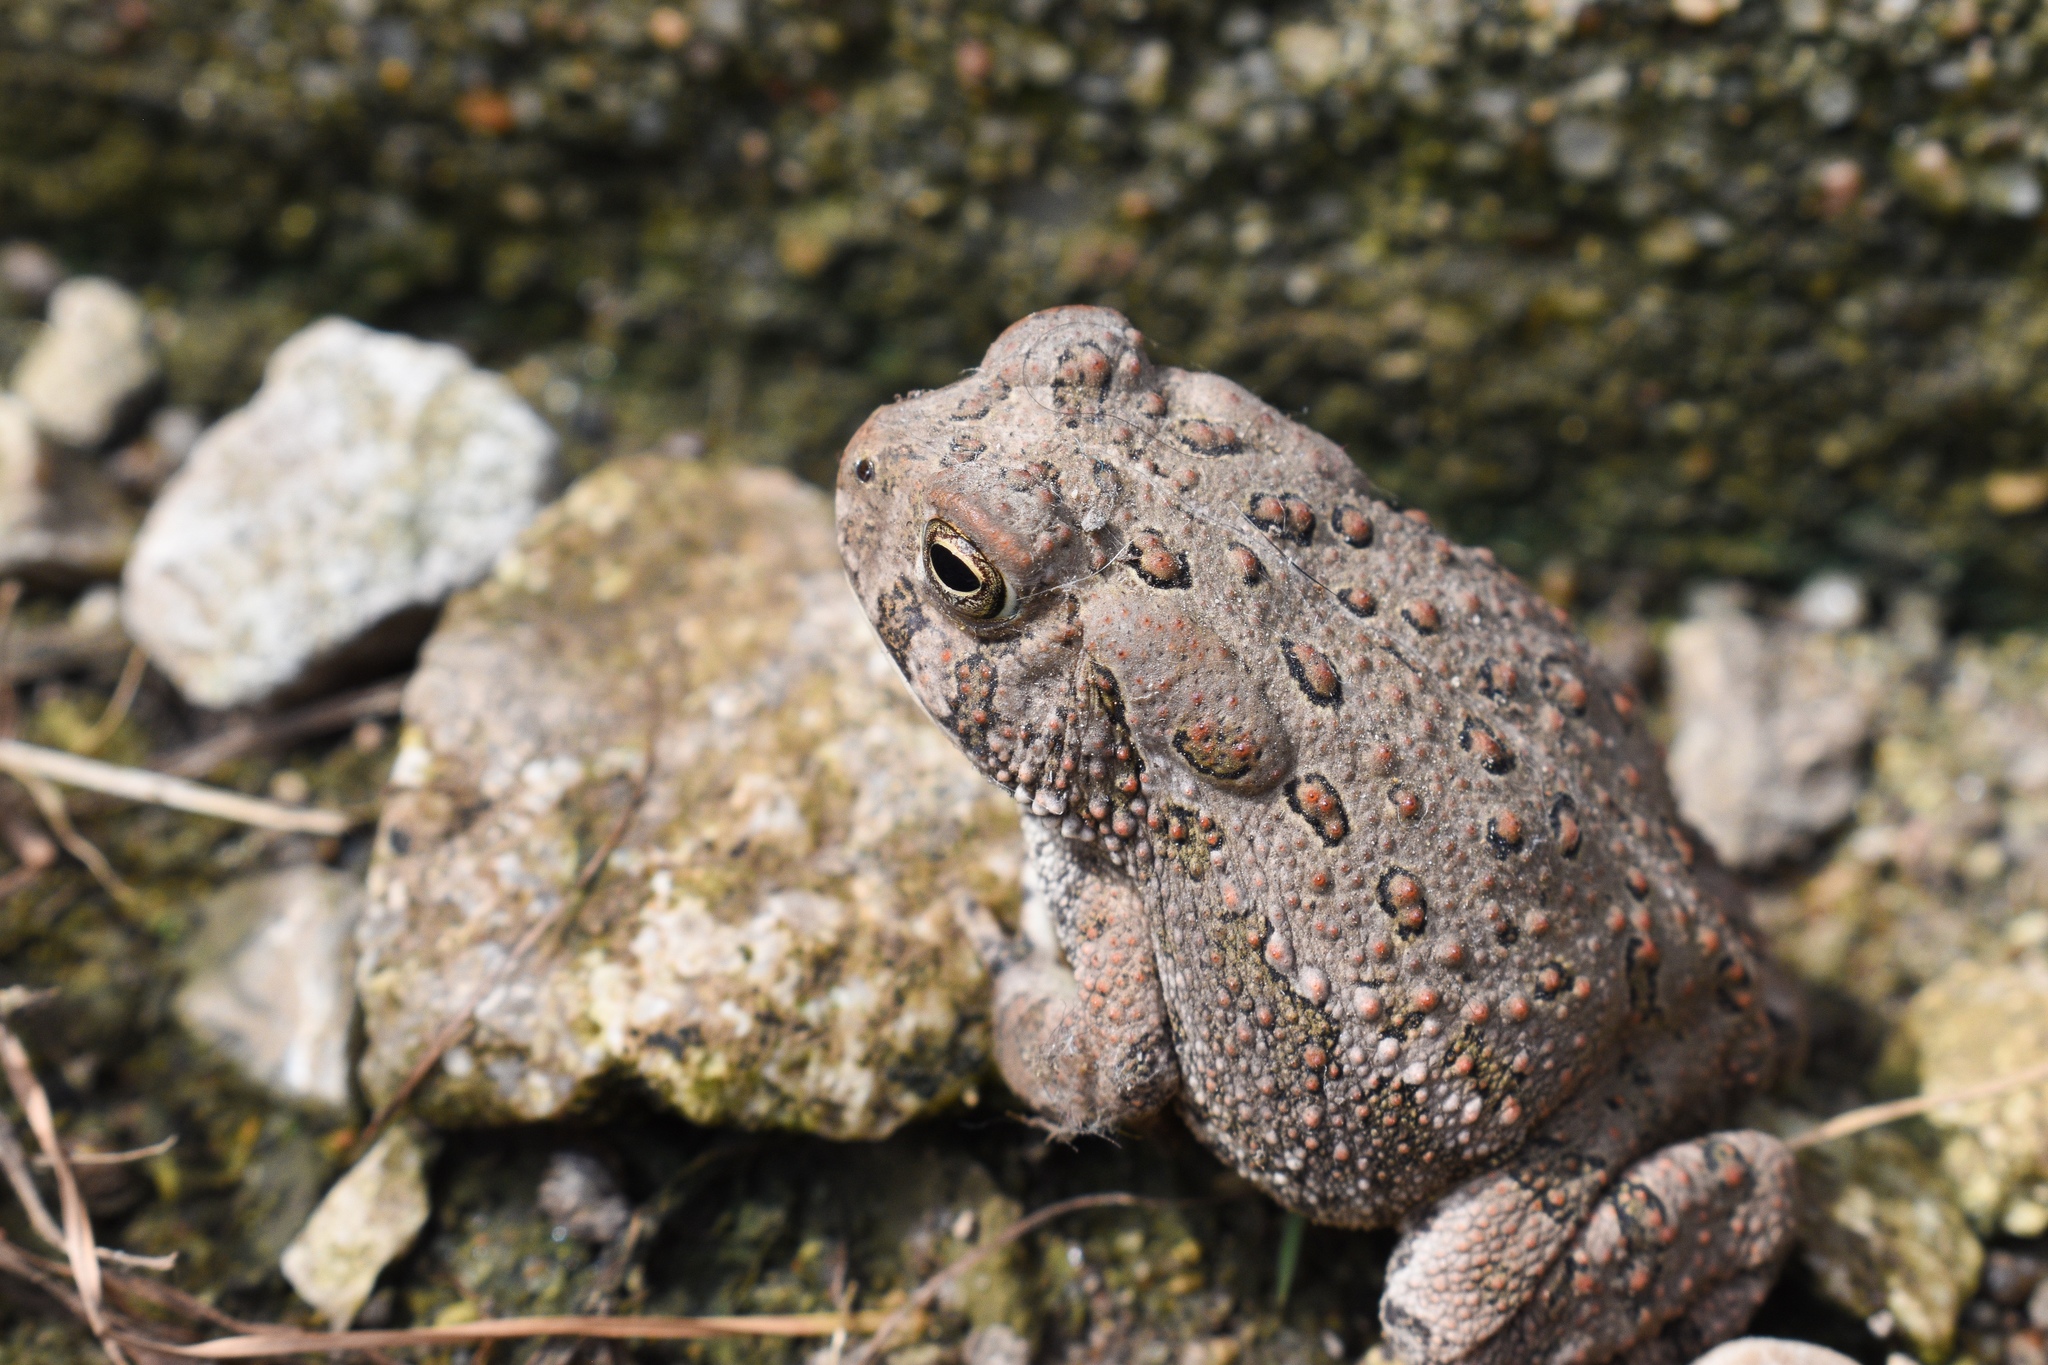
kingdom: Animalia
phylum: Chordata
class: Amphibia
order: Anura
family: Bufonidae
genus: Anaxyrus
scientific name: Anaxyrus woodhousii
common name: Woodhouse's toad
